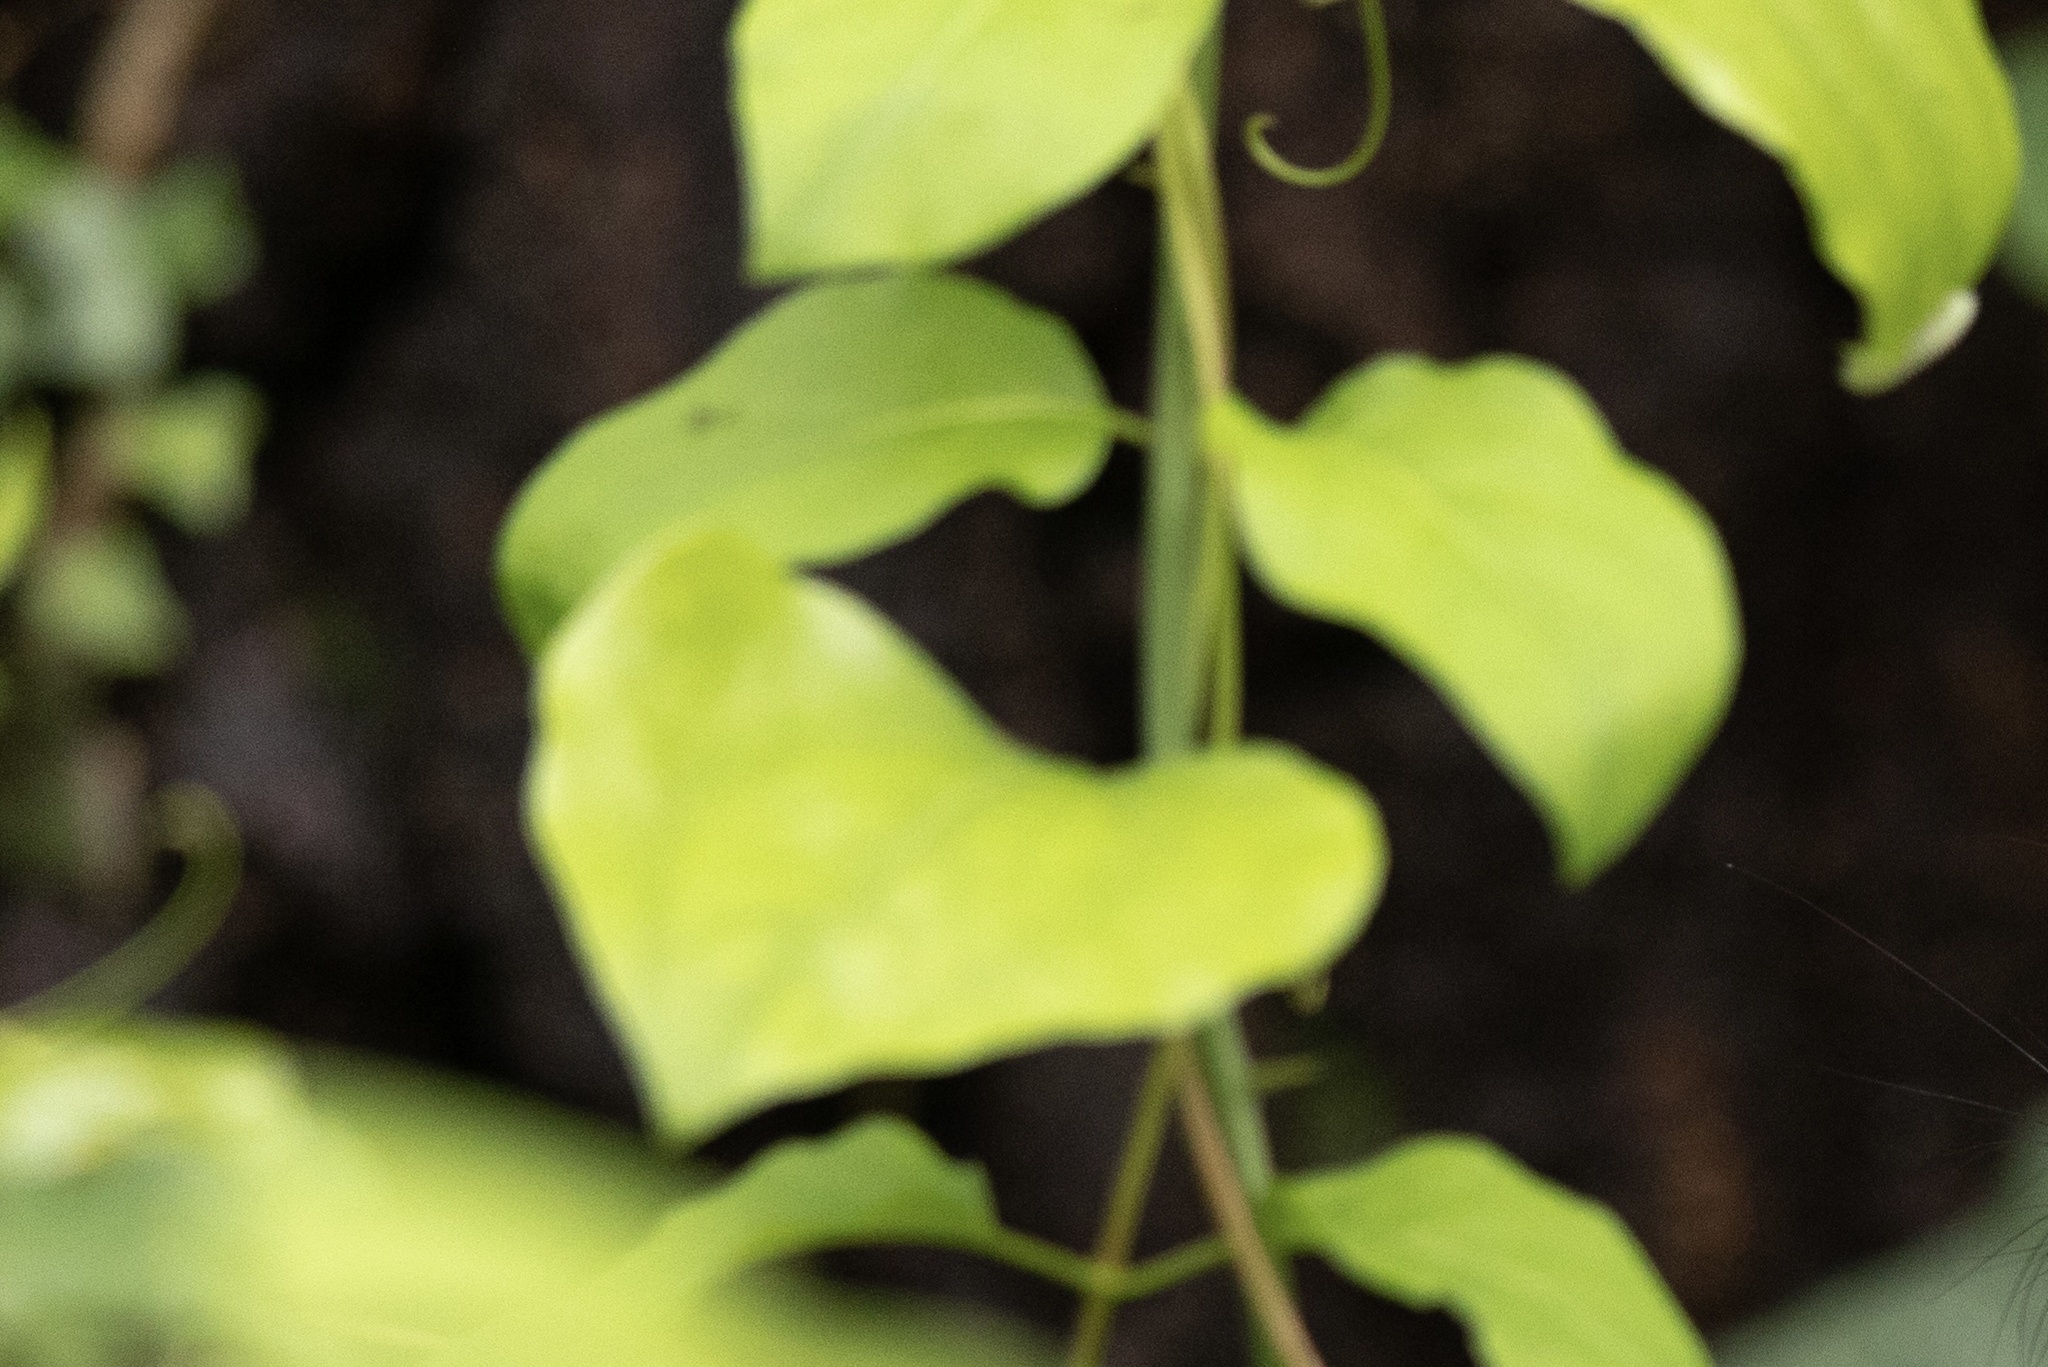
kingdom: Plantae
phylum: Tracheophyta
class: Liliopsida
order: Liliales
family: Smilacaceae
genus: Smilax
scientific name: Smilax rotundifolia
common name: Bullbriar
